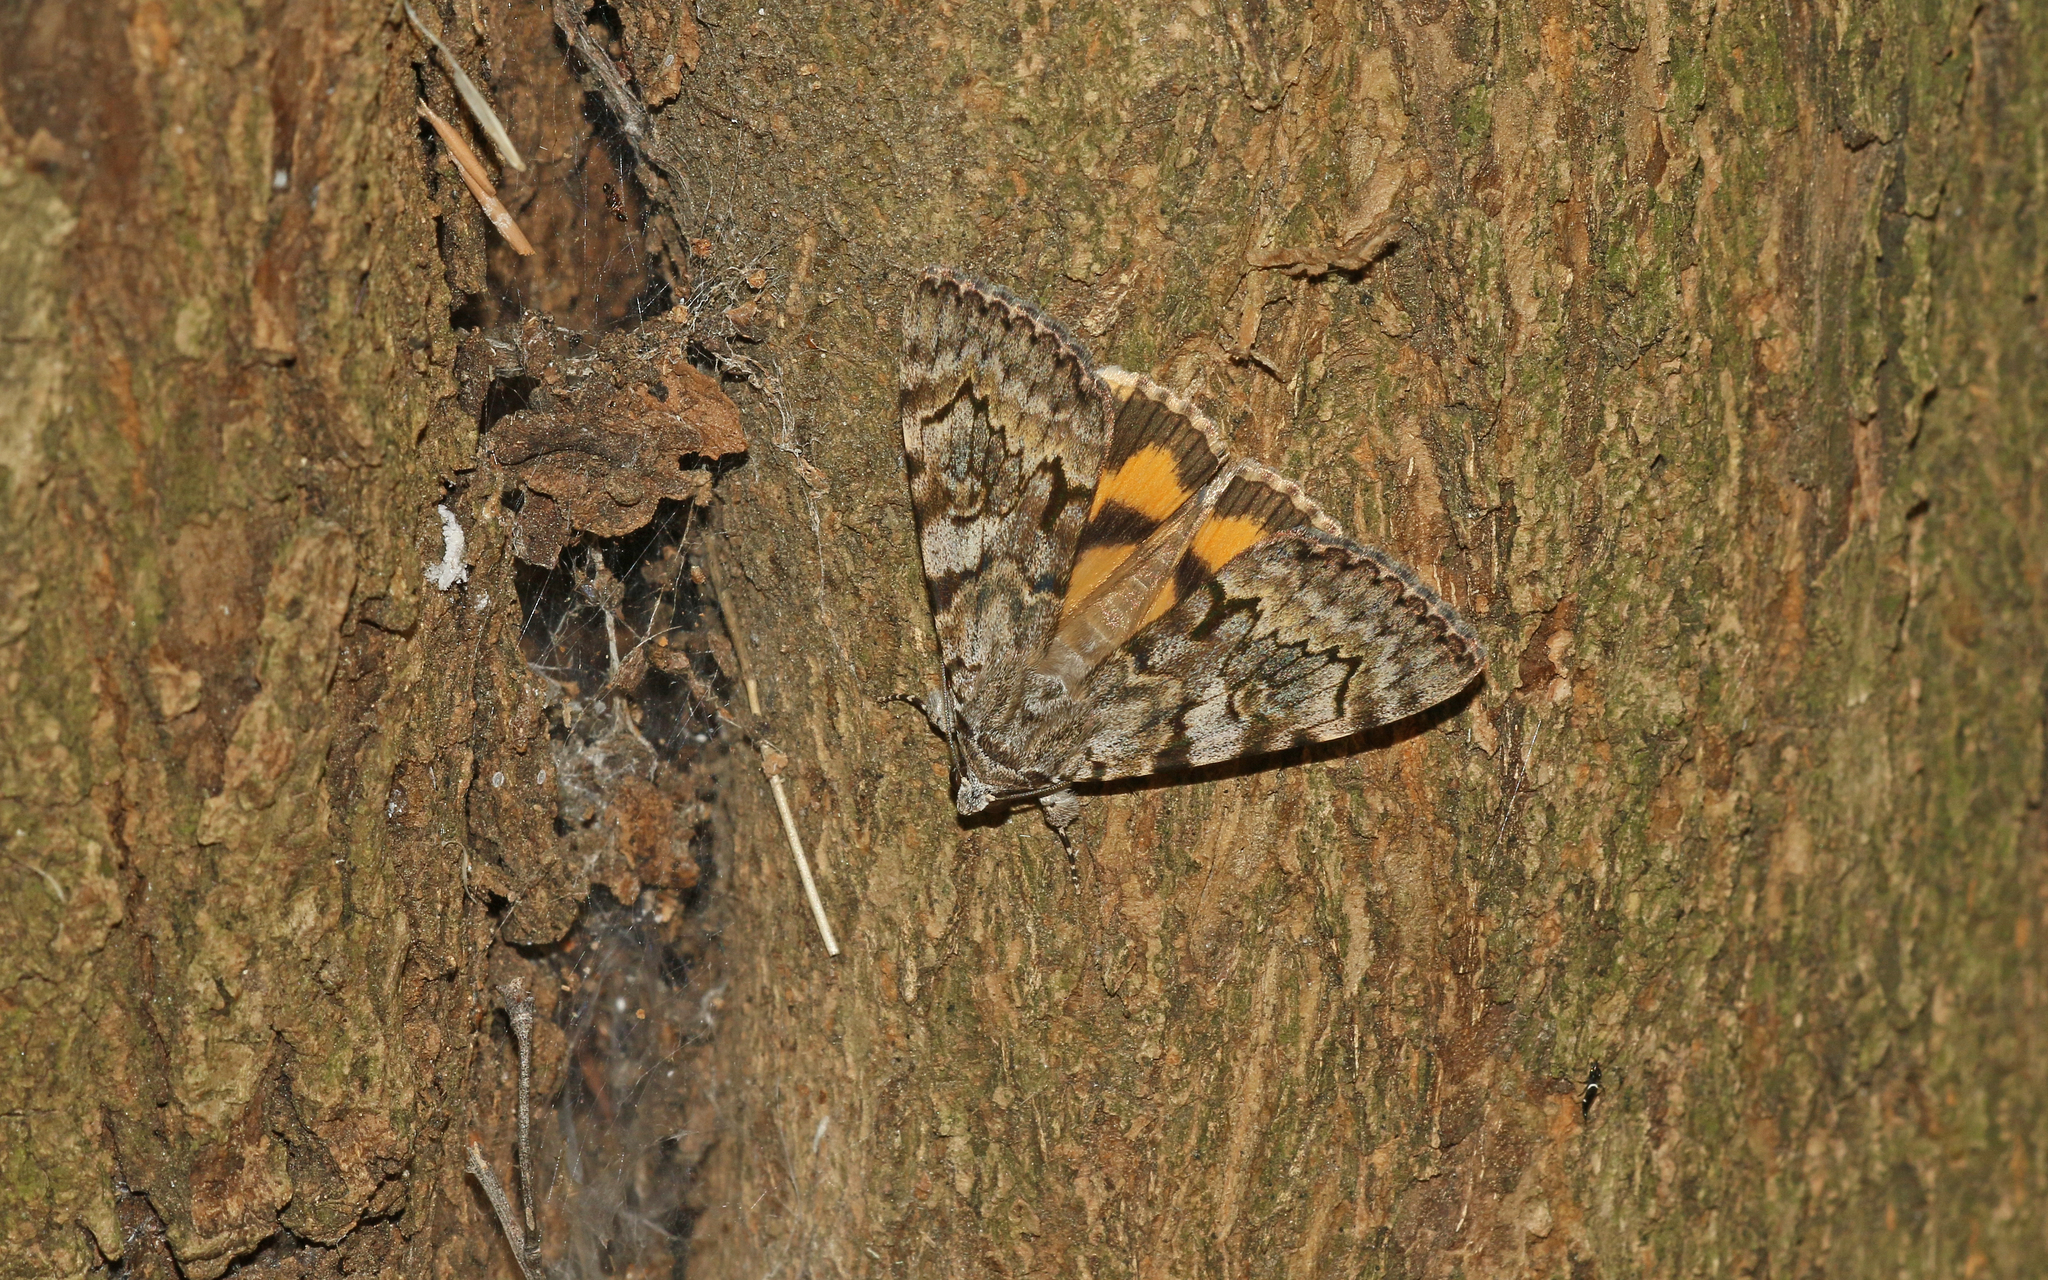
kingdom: Animalia
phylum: Arthropoda
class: Insecta
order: Lepidoptera
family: Erebidae
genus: Catocala
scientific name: Catocala conversa
